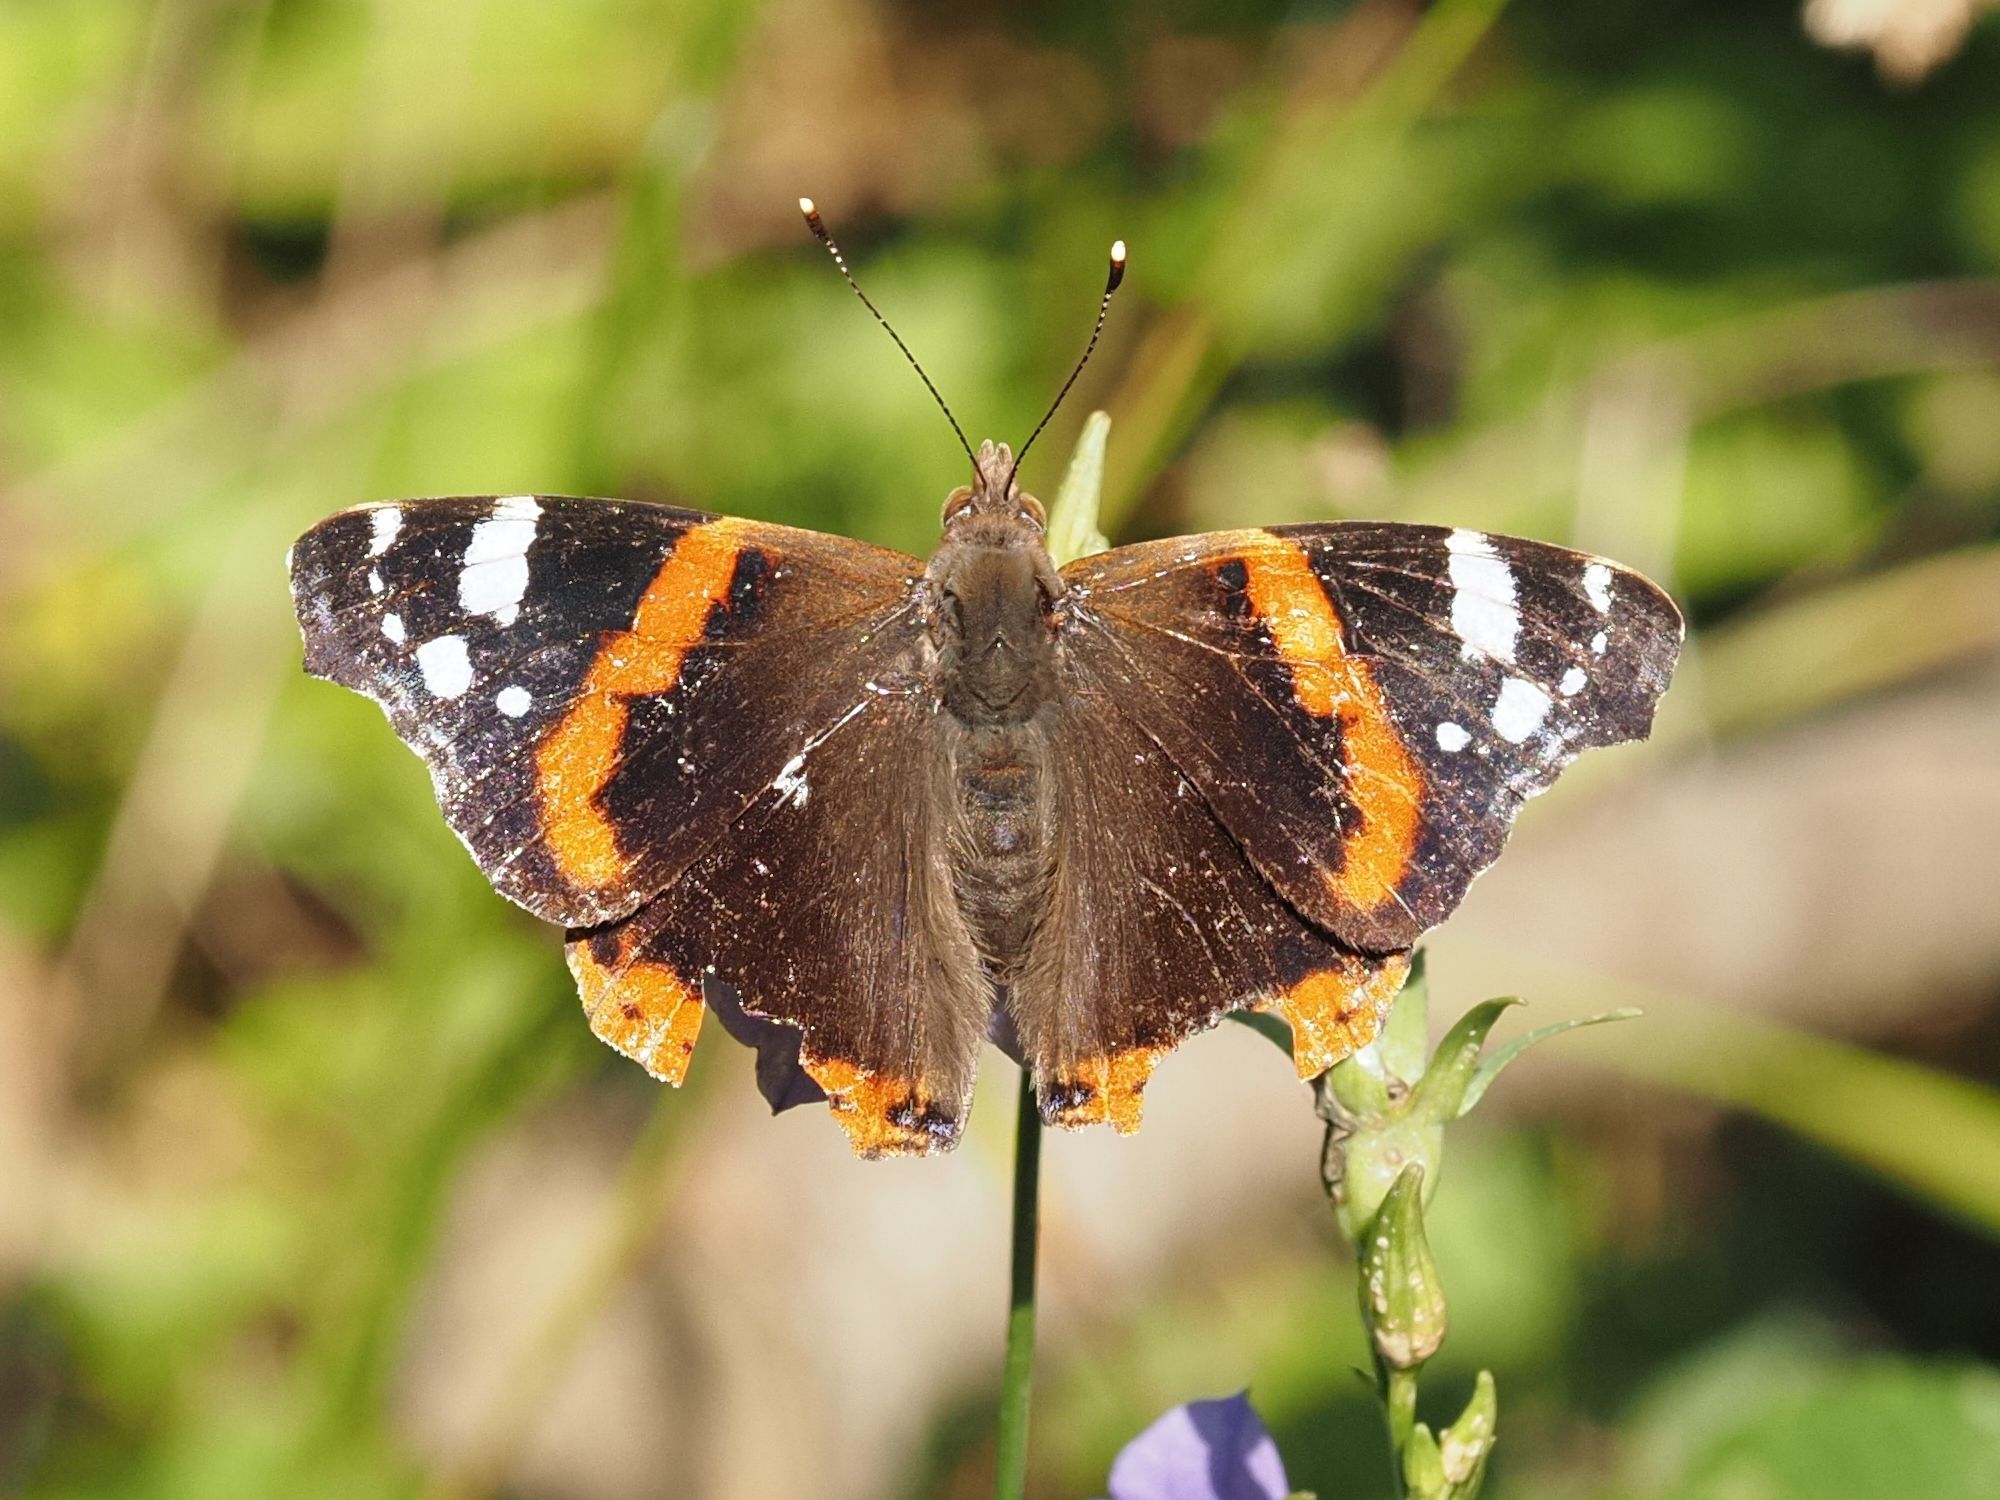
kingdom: Animalia
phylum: Arthropoda
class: Insecta
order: Lepidoptera
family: Nymphalidae
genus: Vanessa
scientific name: Vanessa atalanta
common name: Red admiral
